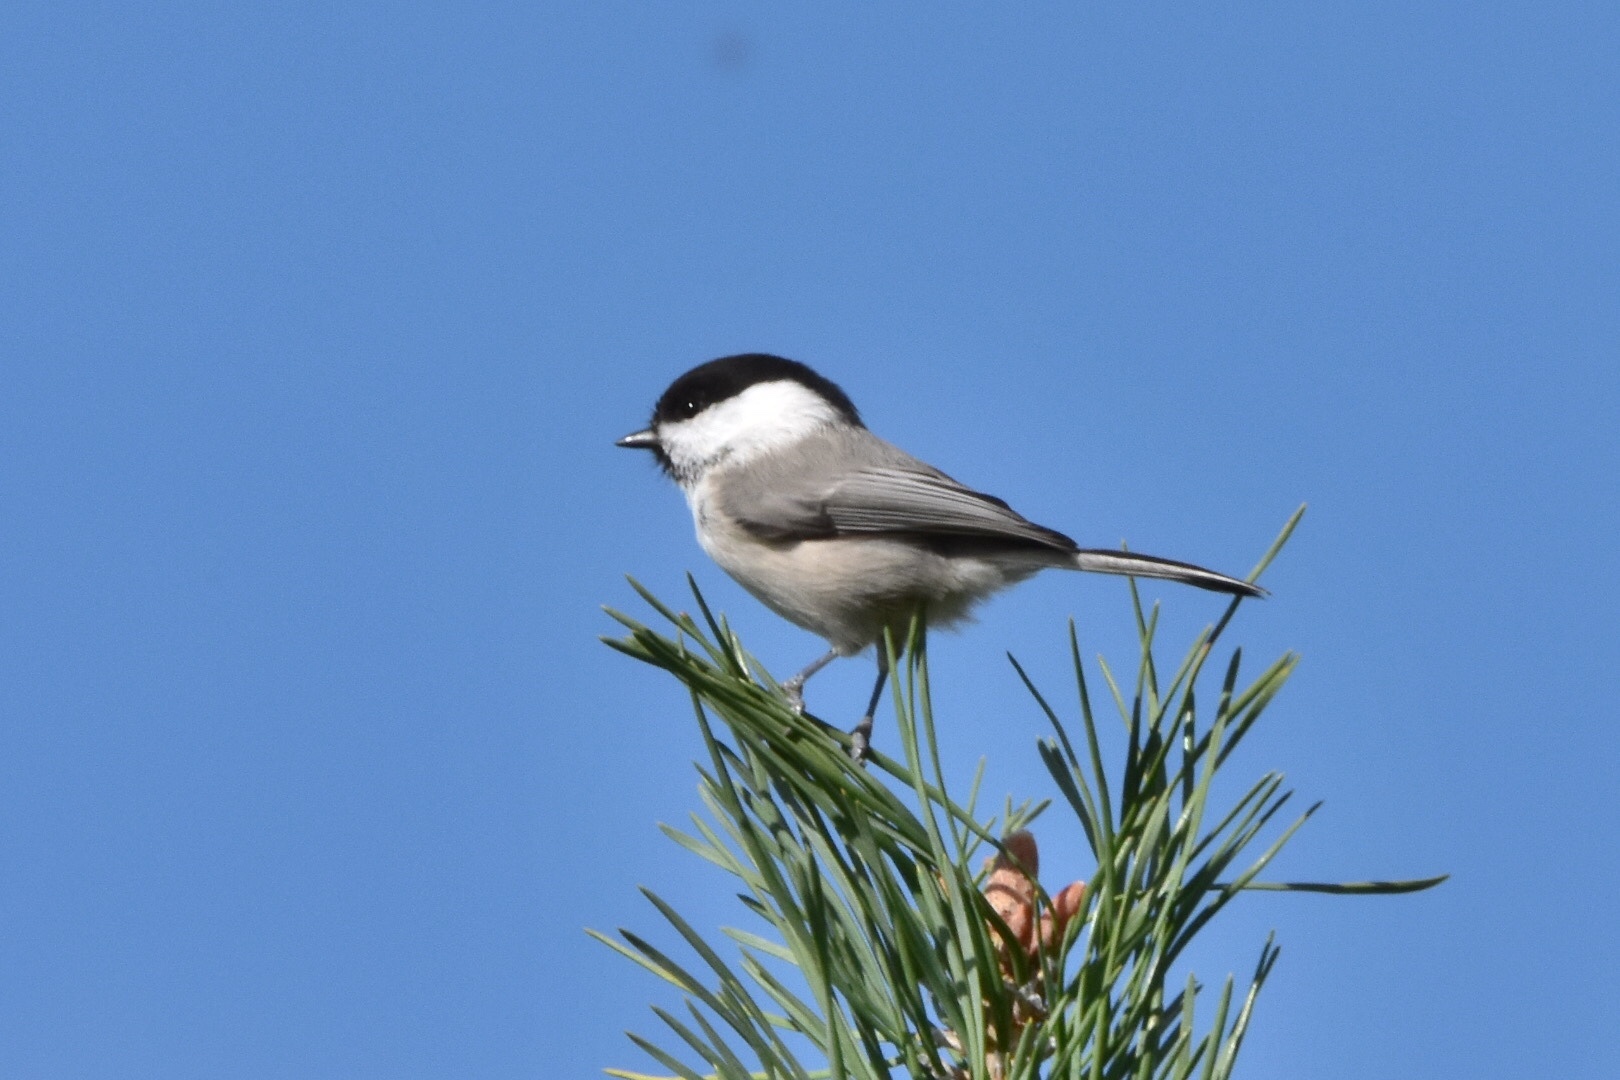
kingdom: Animalia
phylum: Chordata
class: Aves
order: Passeriformes
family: Paridae
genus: Poecile
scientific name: Poecile montanus
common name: Willow tit
